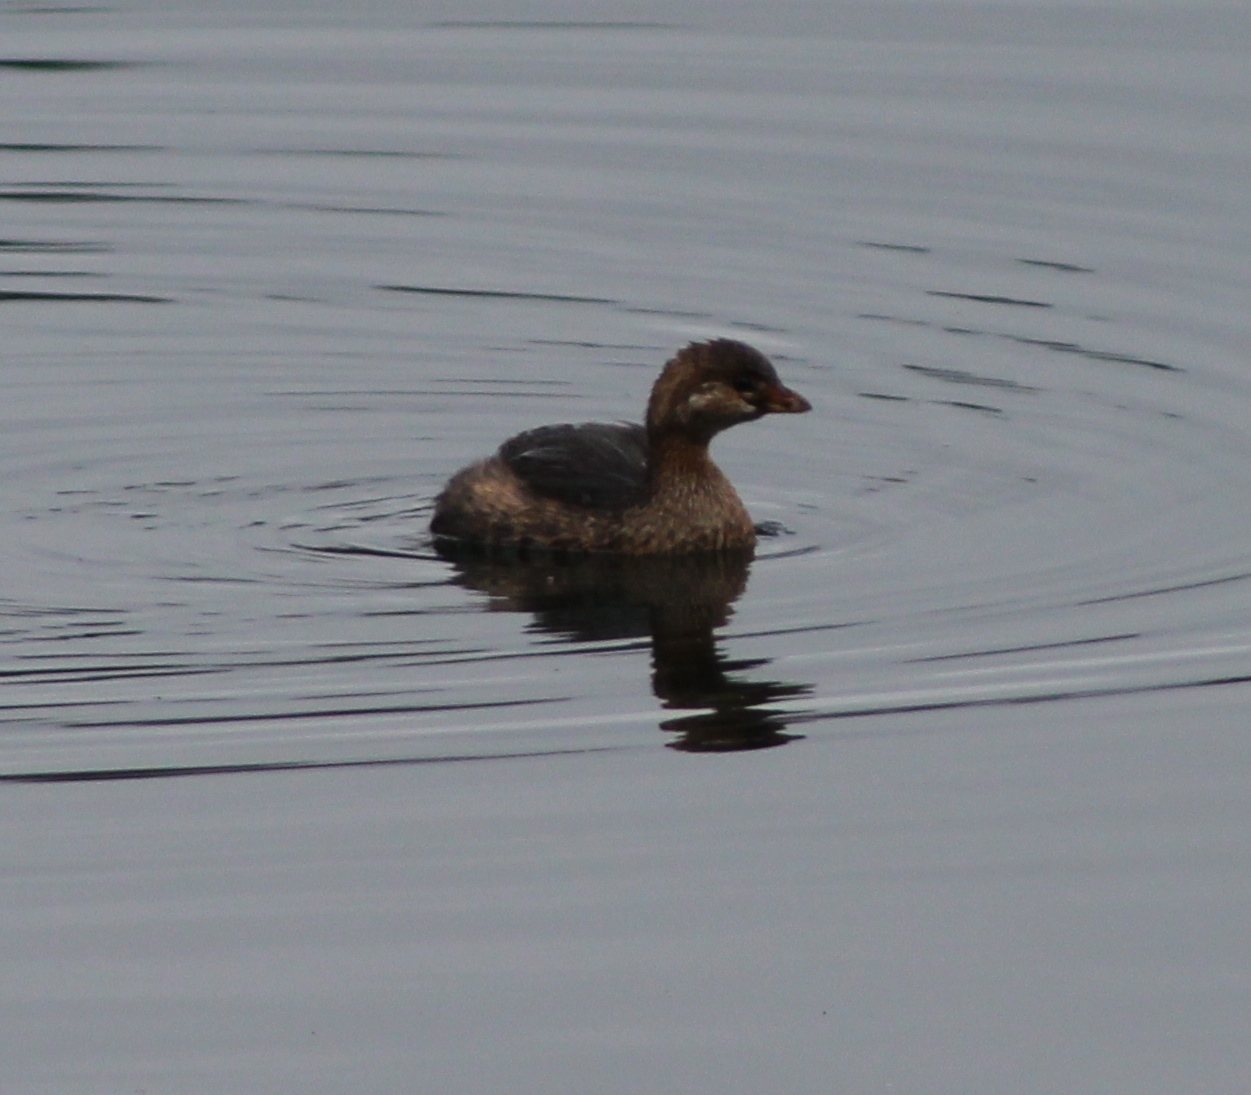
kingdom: Animalia
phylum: Chordata
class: Aves
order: Podicipediformes
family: Podicipedidae
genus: Podilymbus
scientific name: Podilymbus podiceps
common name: Pied-billed grebe
